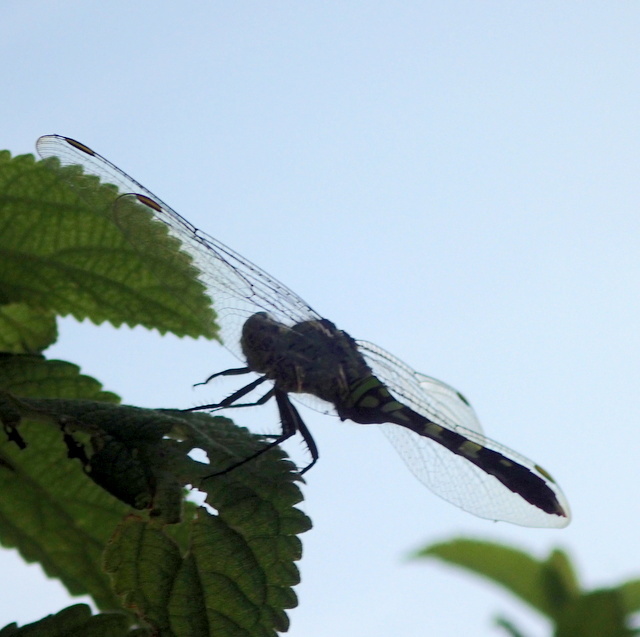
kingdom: Animalia
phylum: Arthropoda
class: Insecta
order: Odonata
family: Libellulidae
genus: Erythemis
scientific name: Erythemis simplicicollis
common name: Eastern pondhawk
